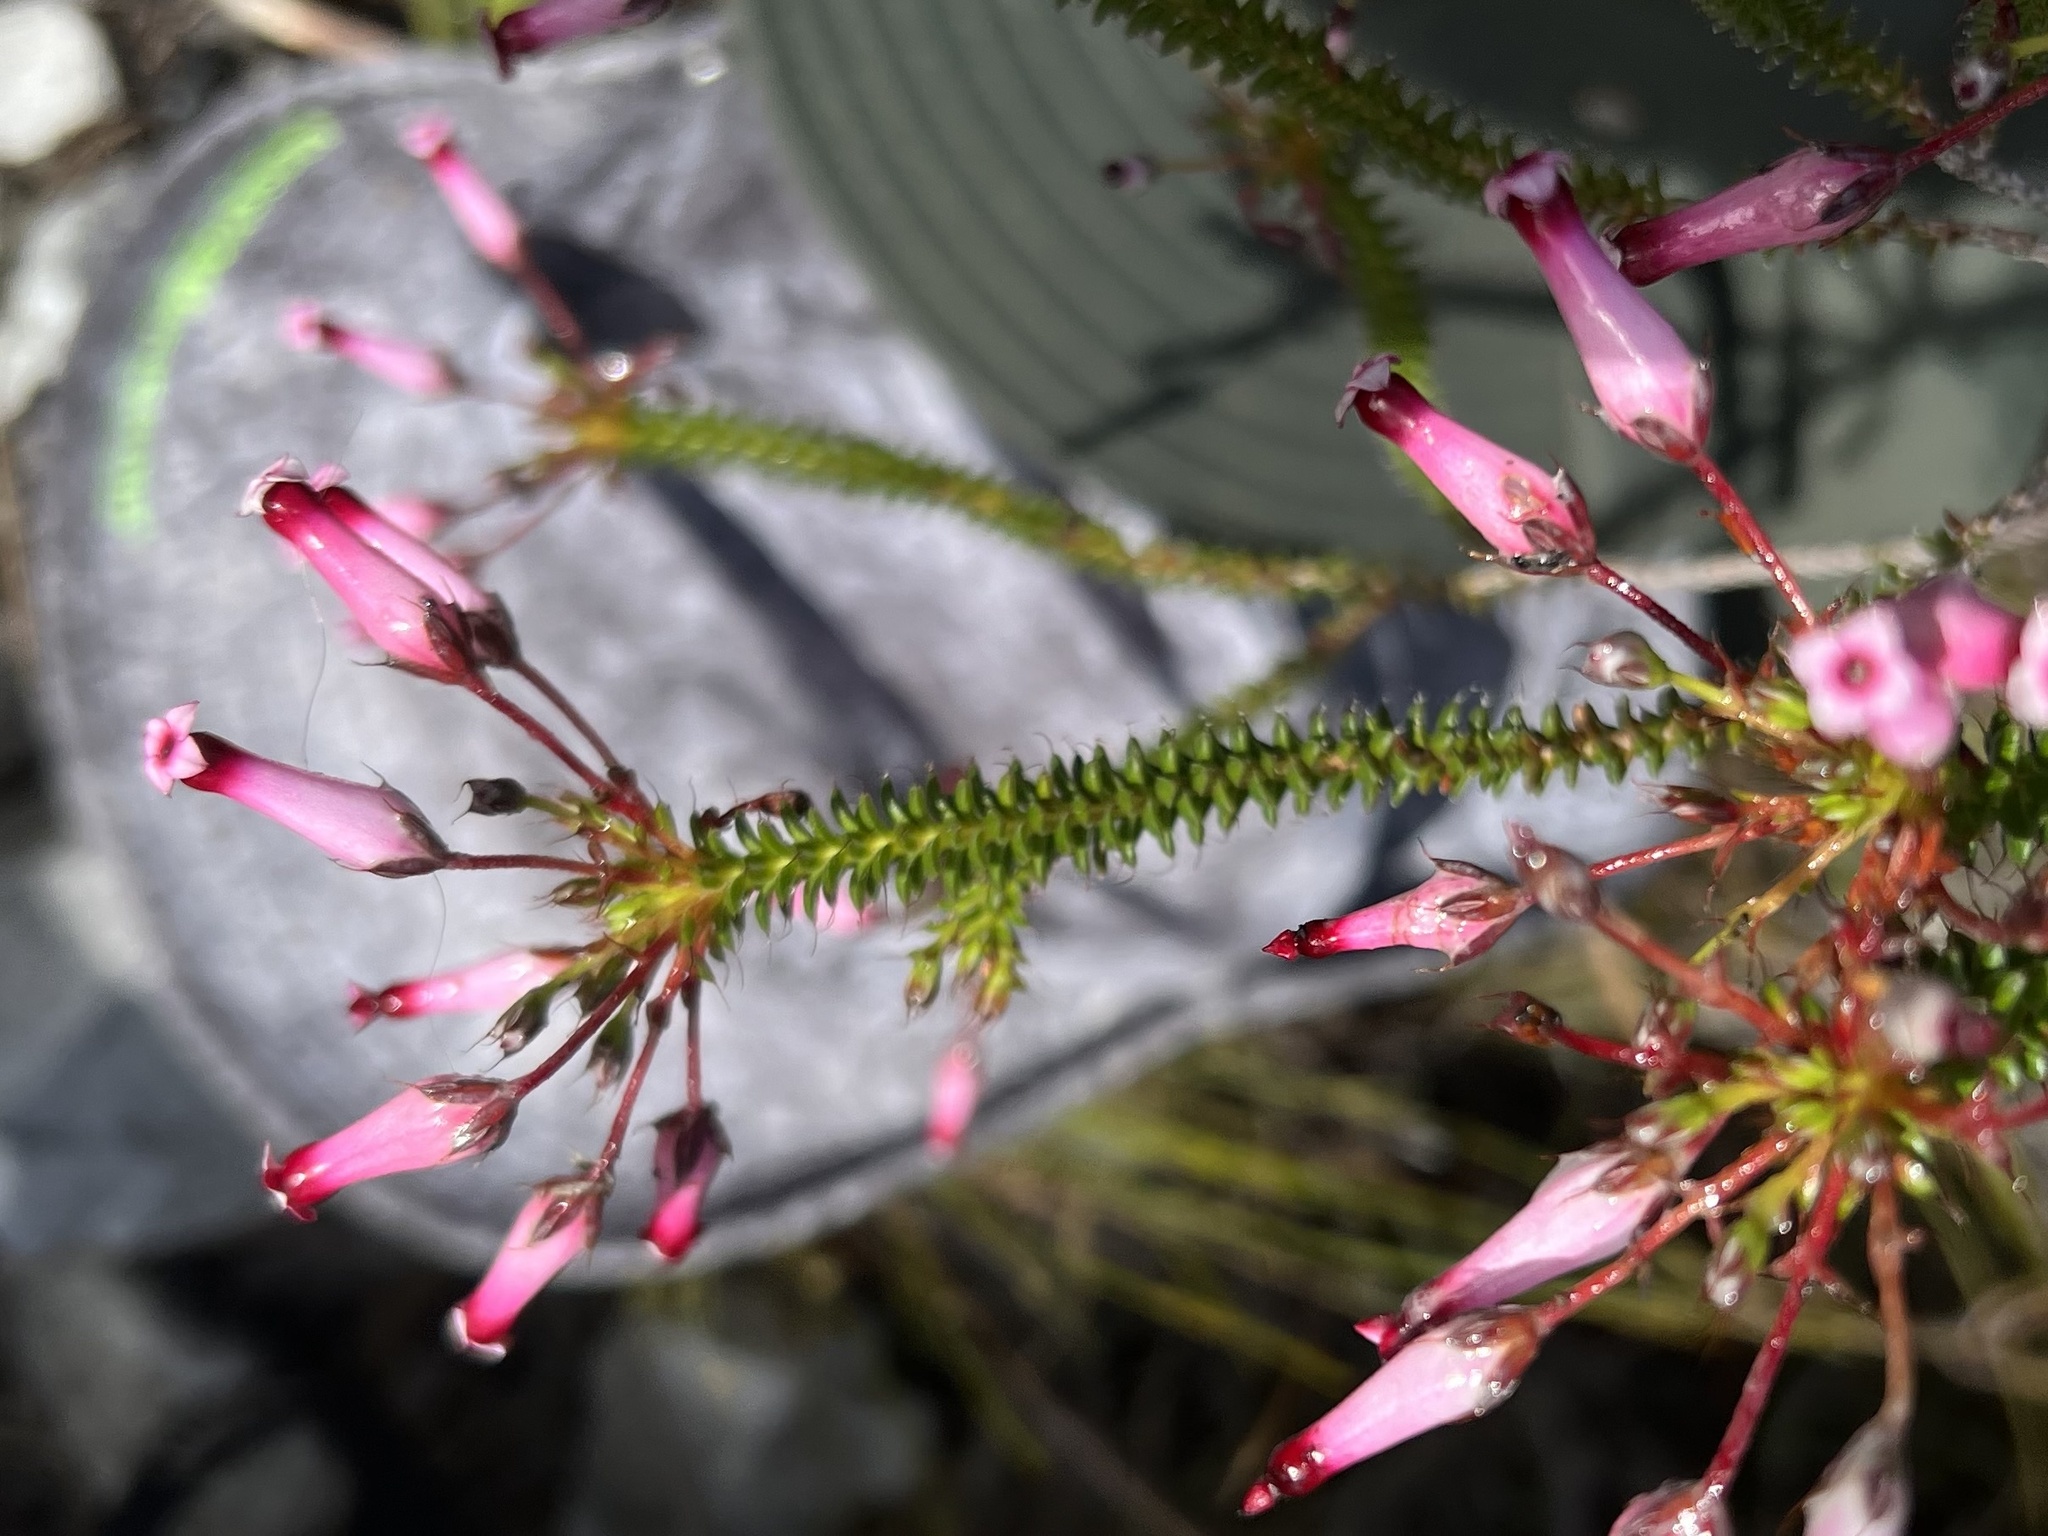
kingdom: Plantae
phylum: Tracheophyta
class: Magnoliopsida
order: Ericales
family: Ericaceae
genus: Erica
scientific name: Erica retorta
